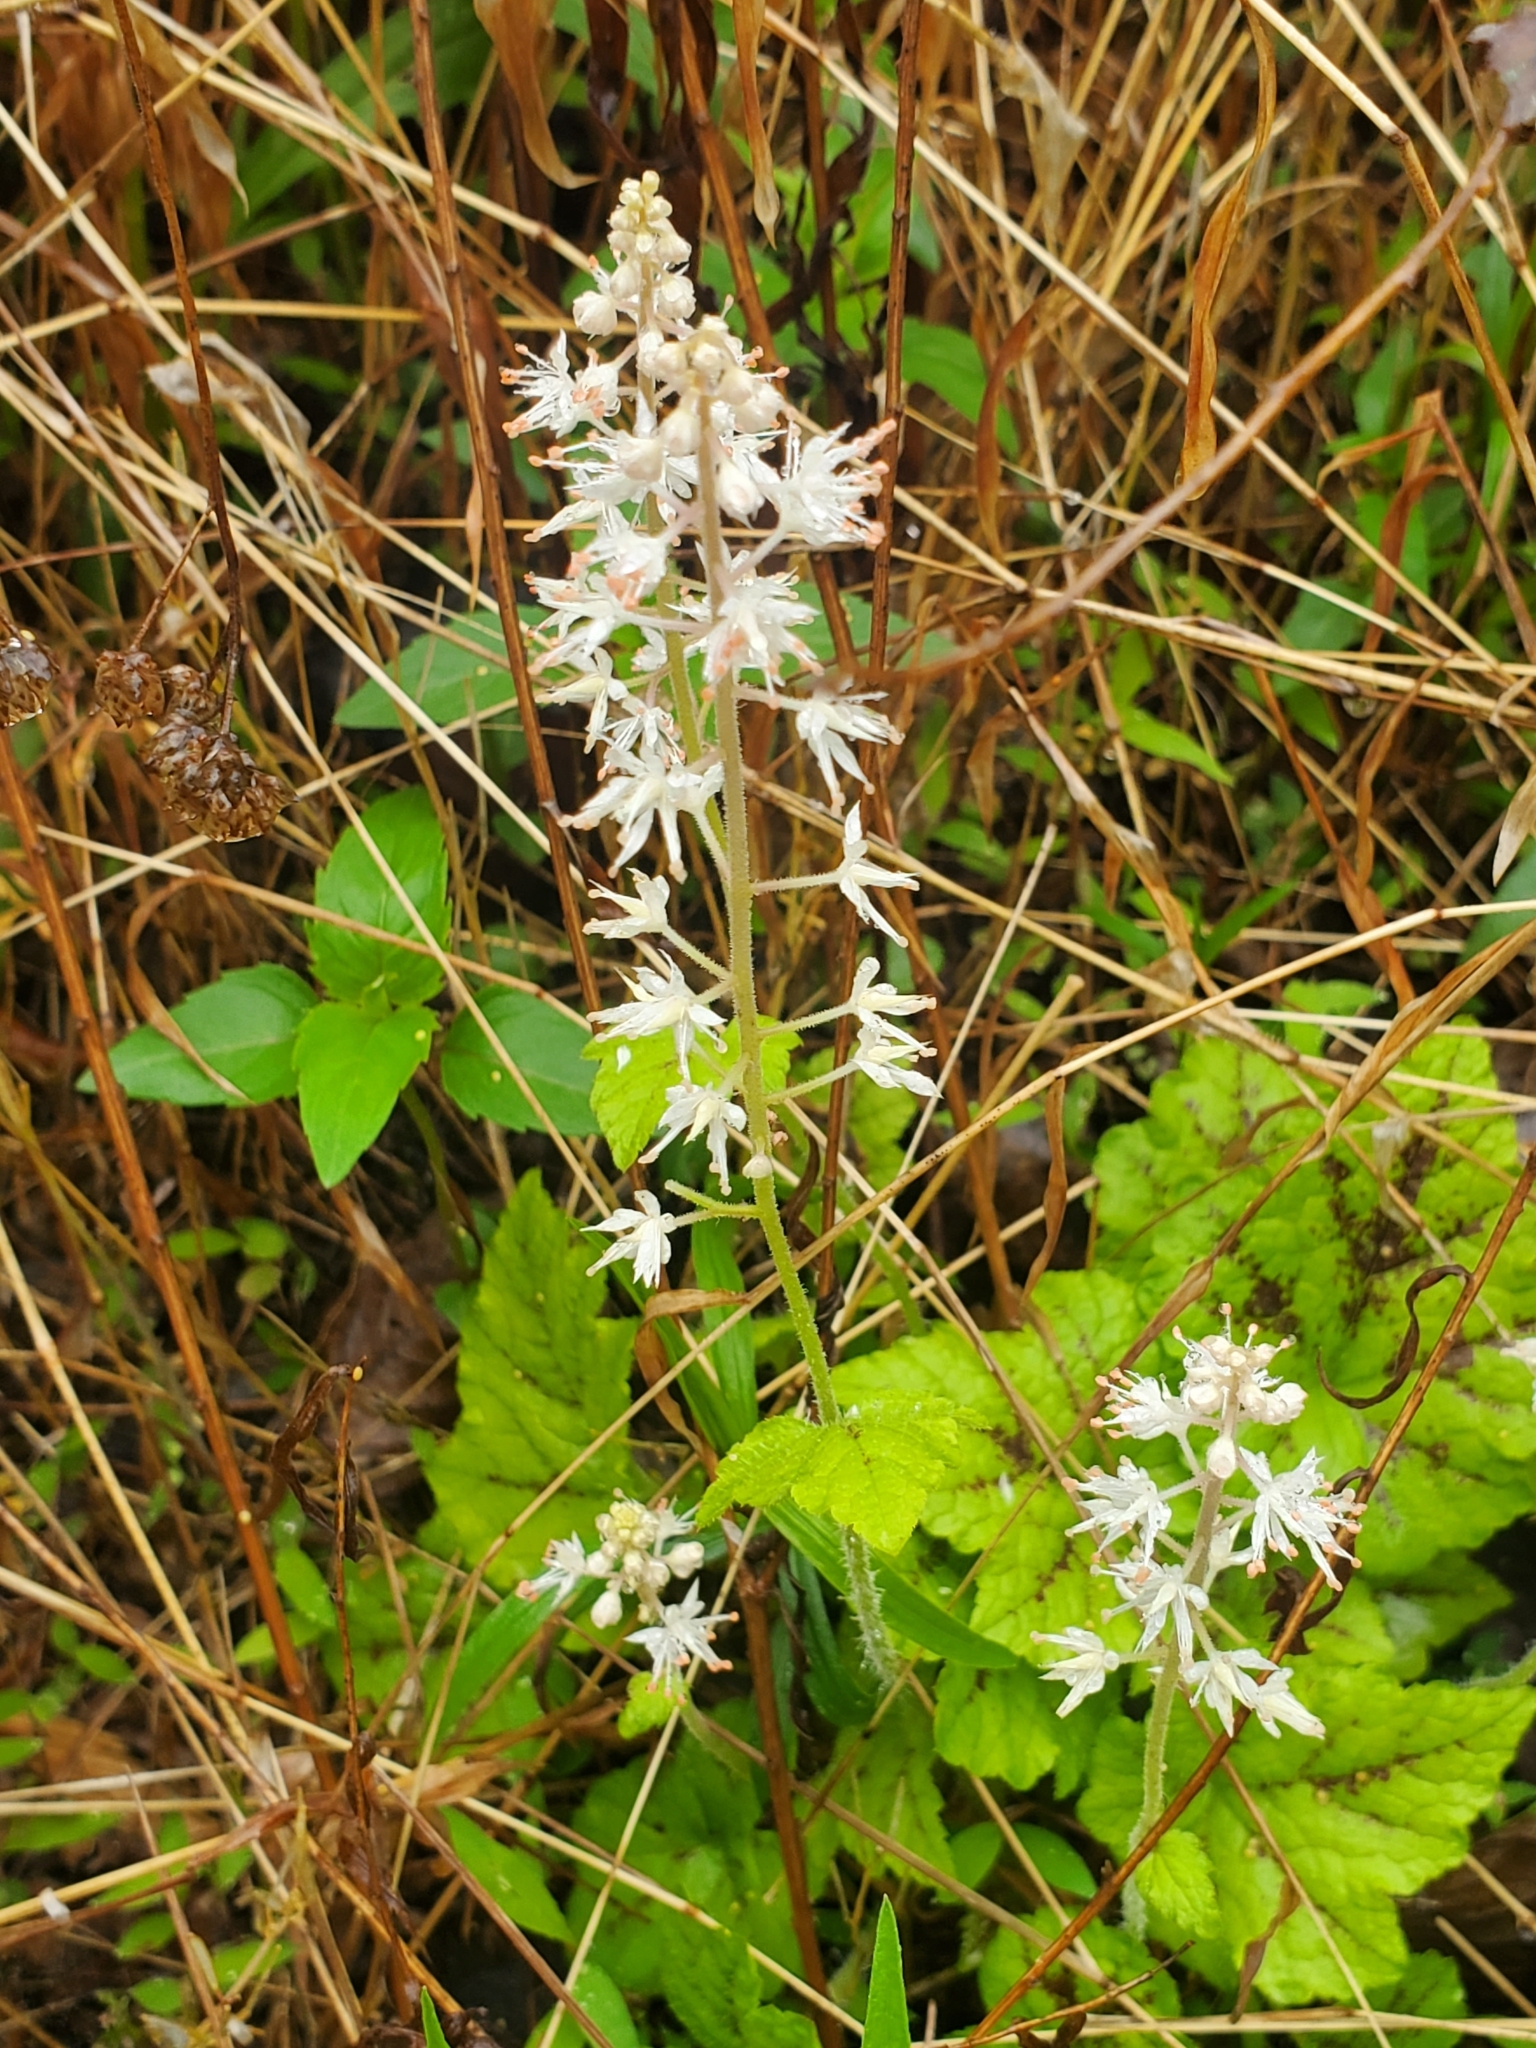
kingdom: Plantae
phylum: Tracheophyta
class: Magnoliopsida
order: Saxifragales
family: Saxifragaceae
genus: Tiarella
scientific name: Tiarella stolonifera
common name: Stoloniferous foamflower
